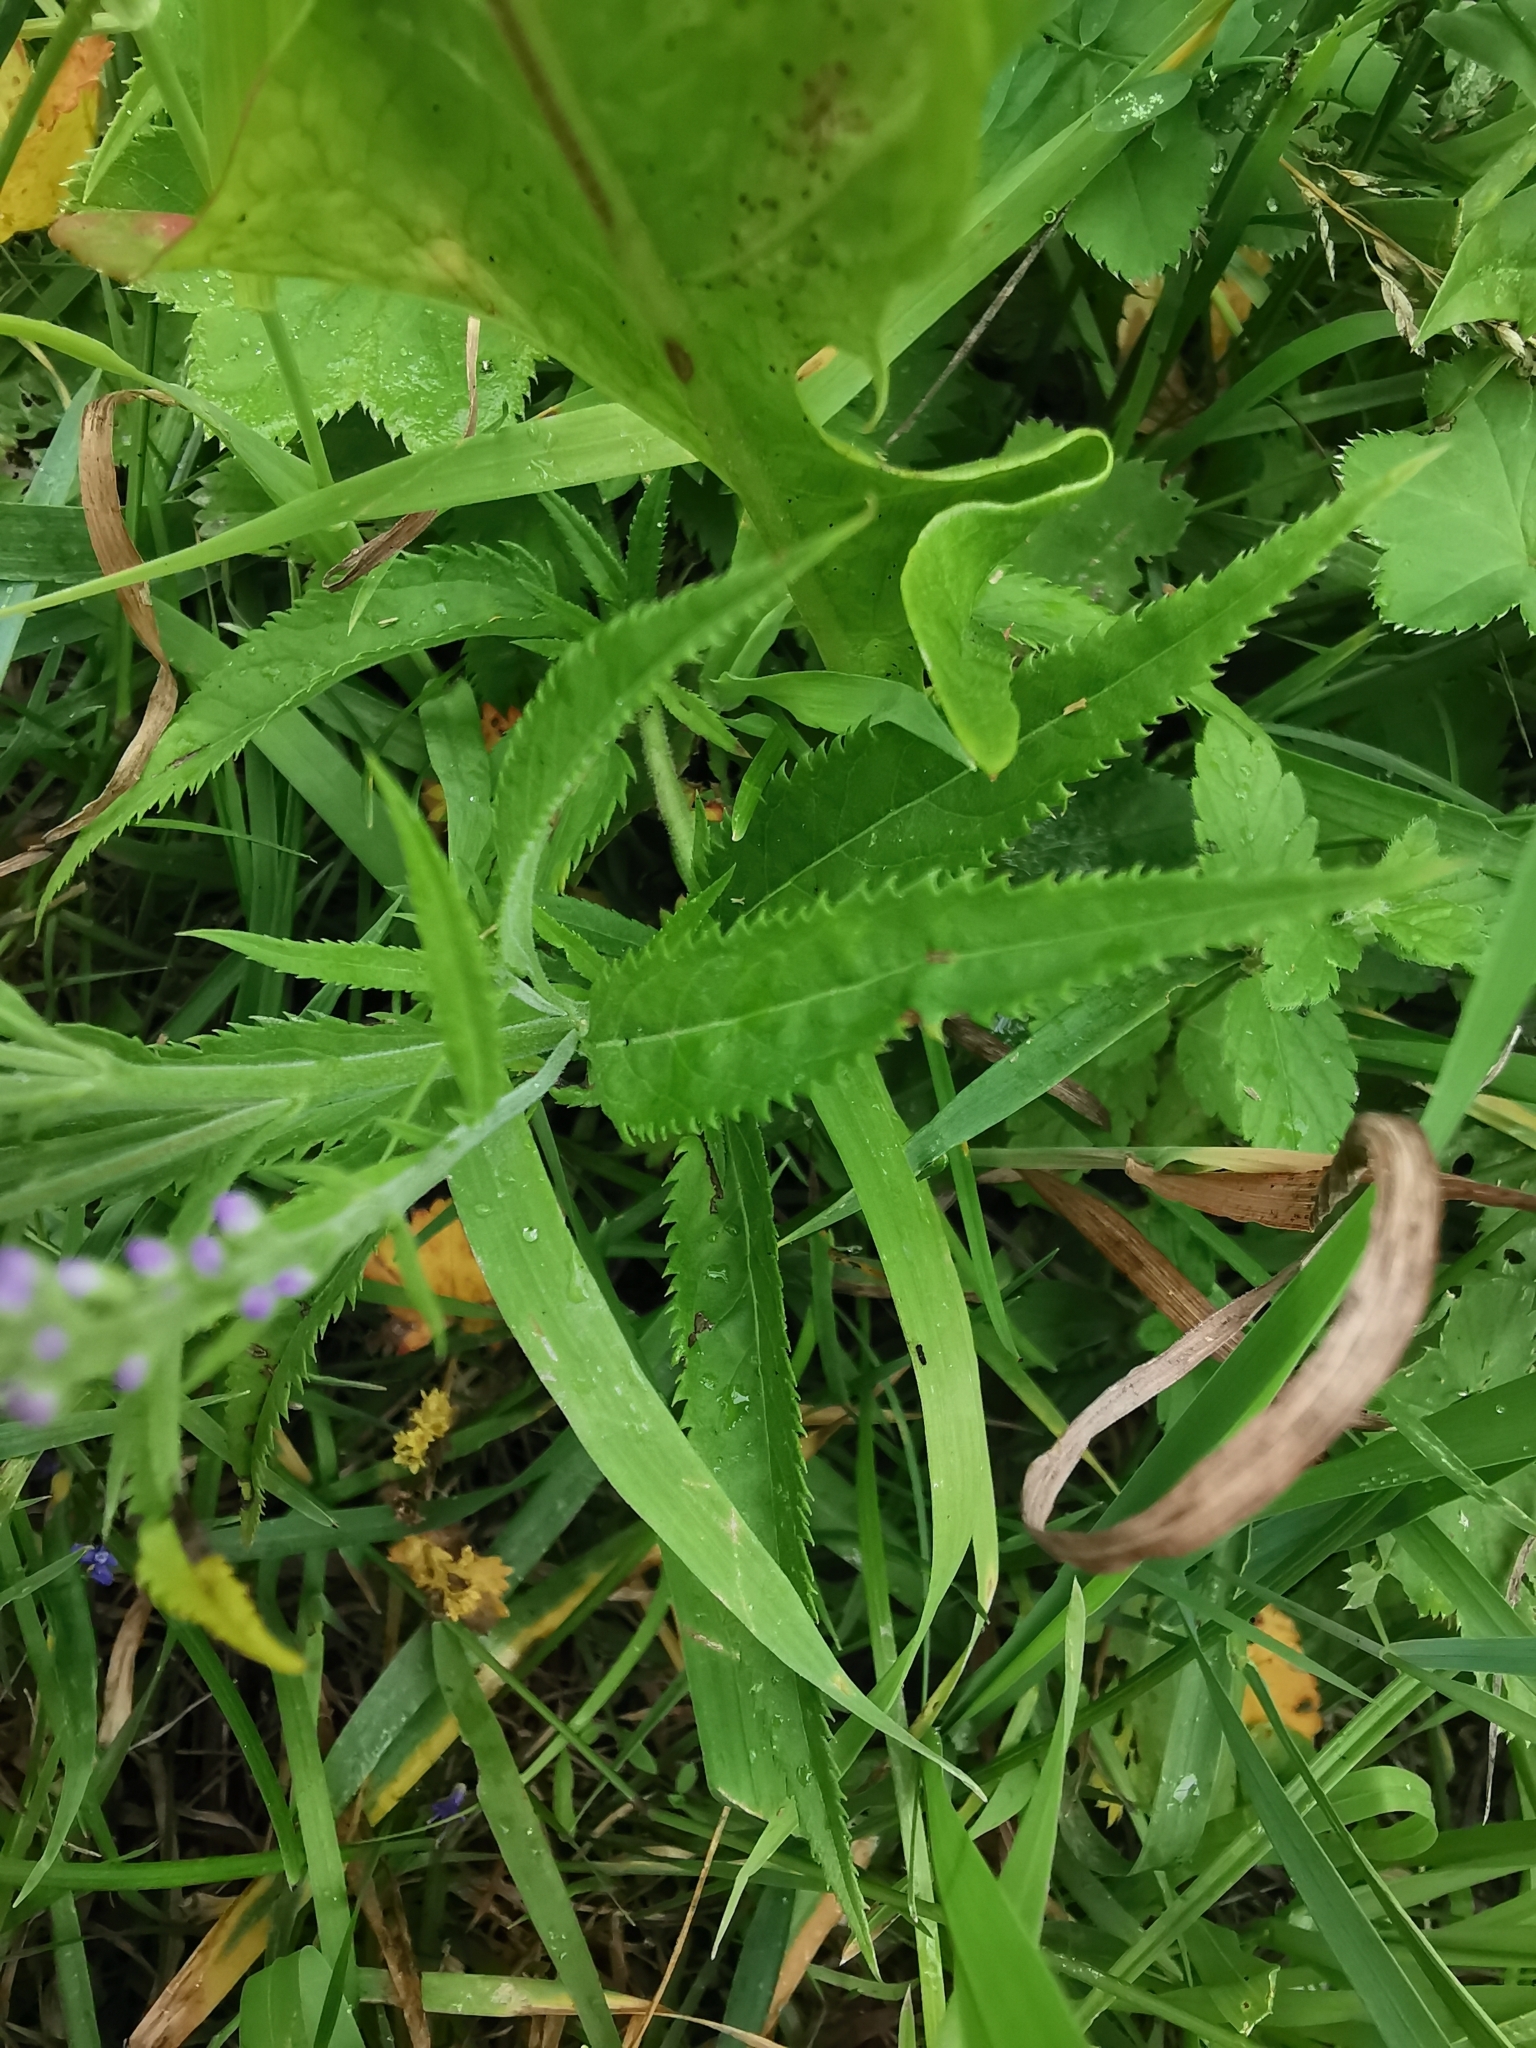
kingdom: Plantae
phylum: Tracheophyta
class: Magnoliopsida
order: Lamiales
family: Plantaginaceae
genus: Veronica
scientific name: Veronica longifolia
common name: Garden speedwell
